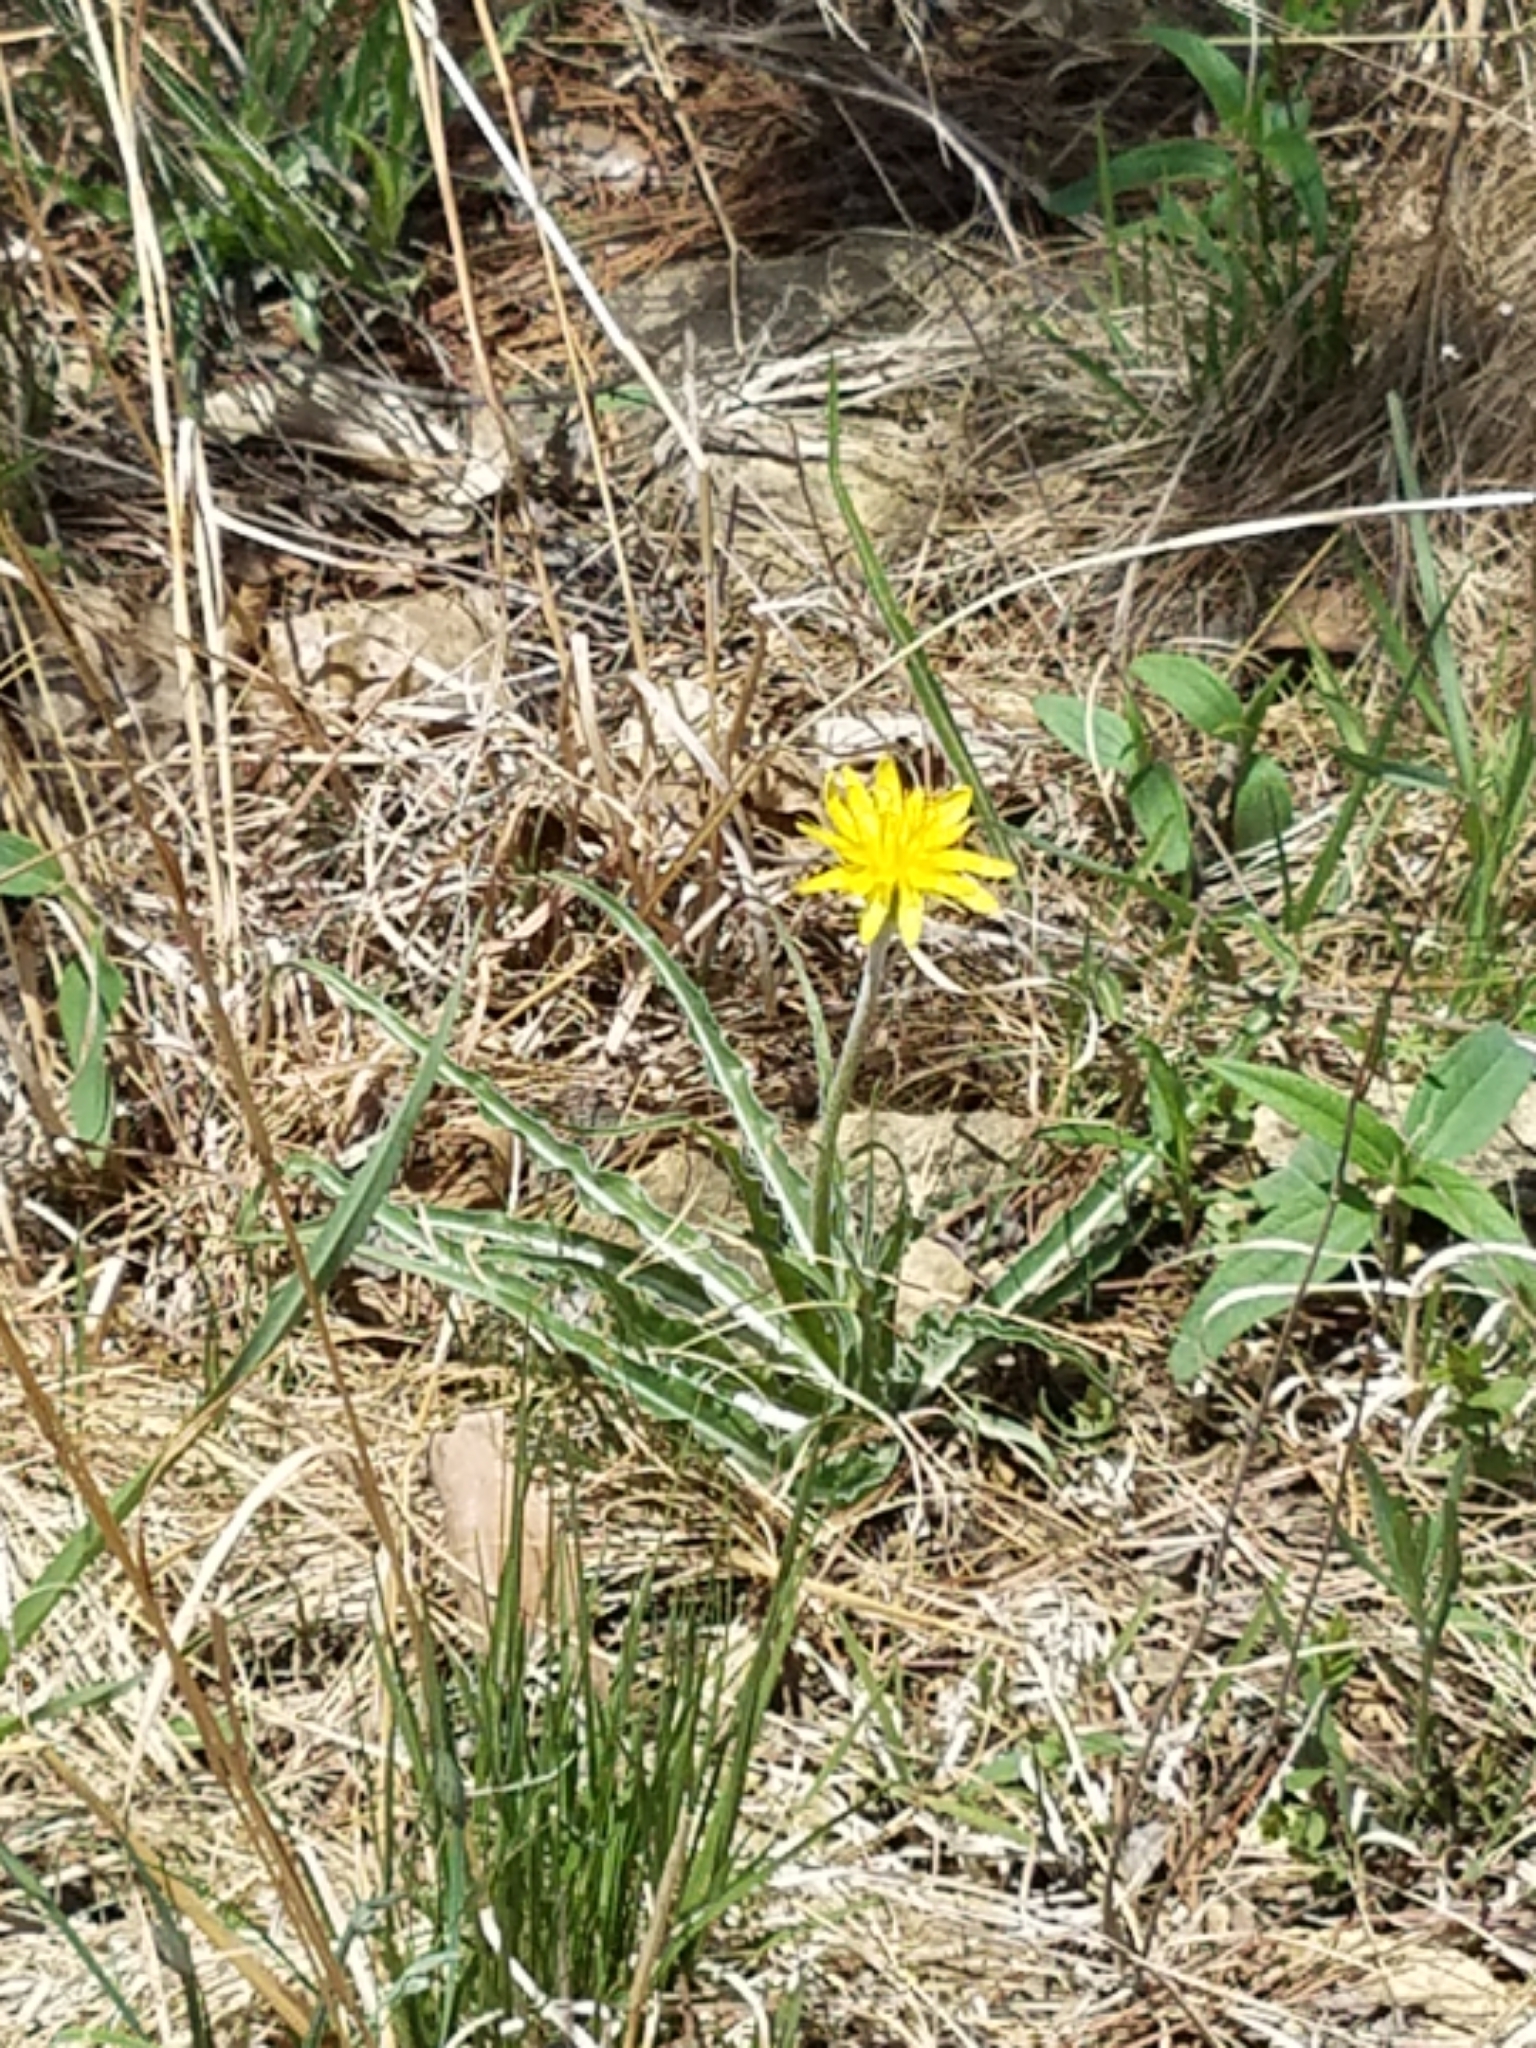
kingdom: Plantae
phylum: Tracheophyta
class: Magnoliopsida
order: Asterales
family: Asteraceae
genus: Microseris
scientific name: Microseris cuspidata
